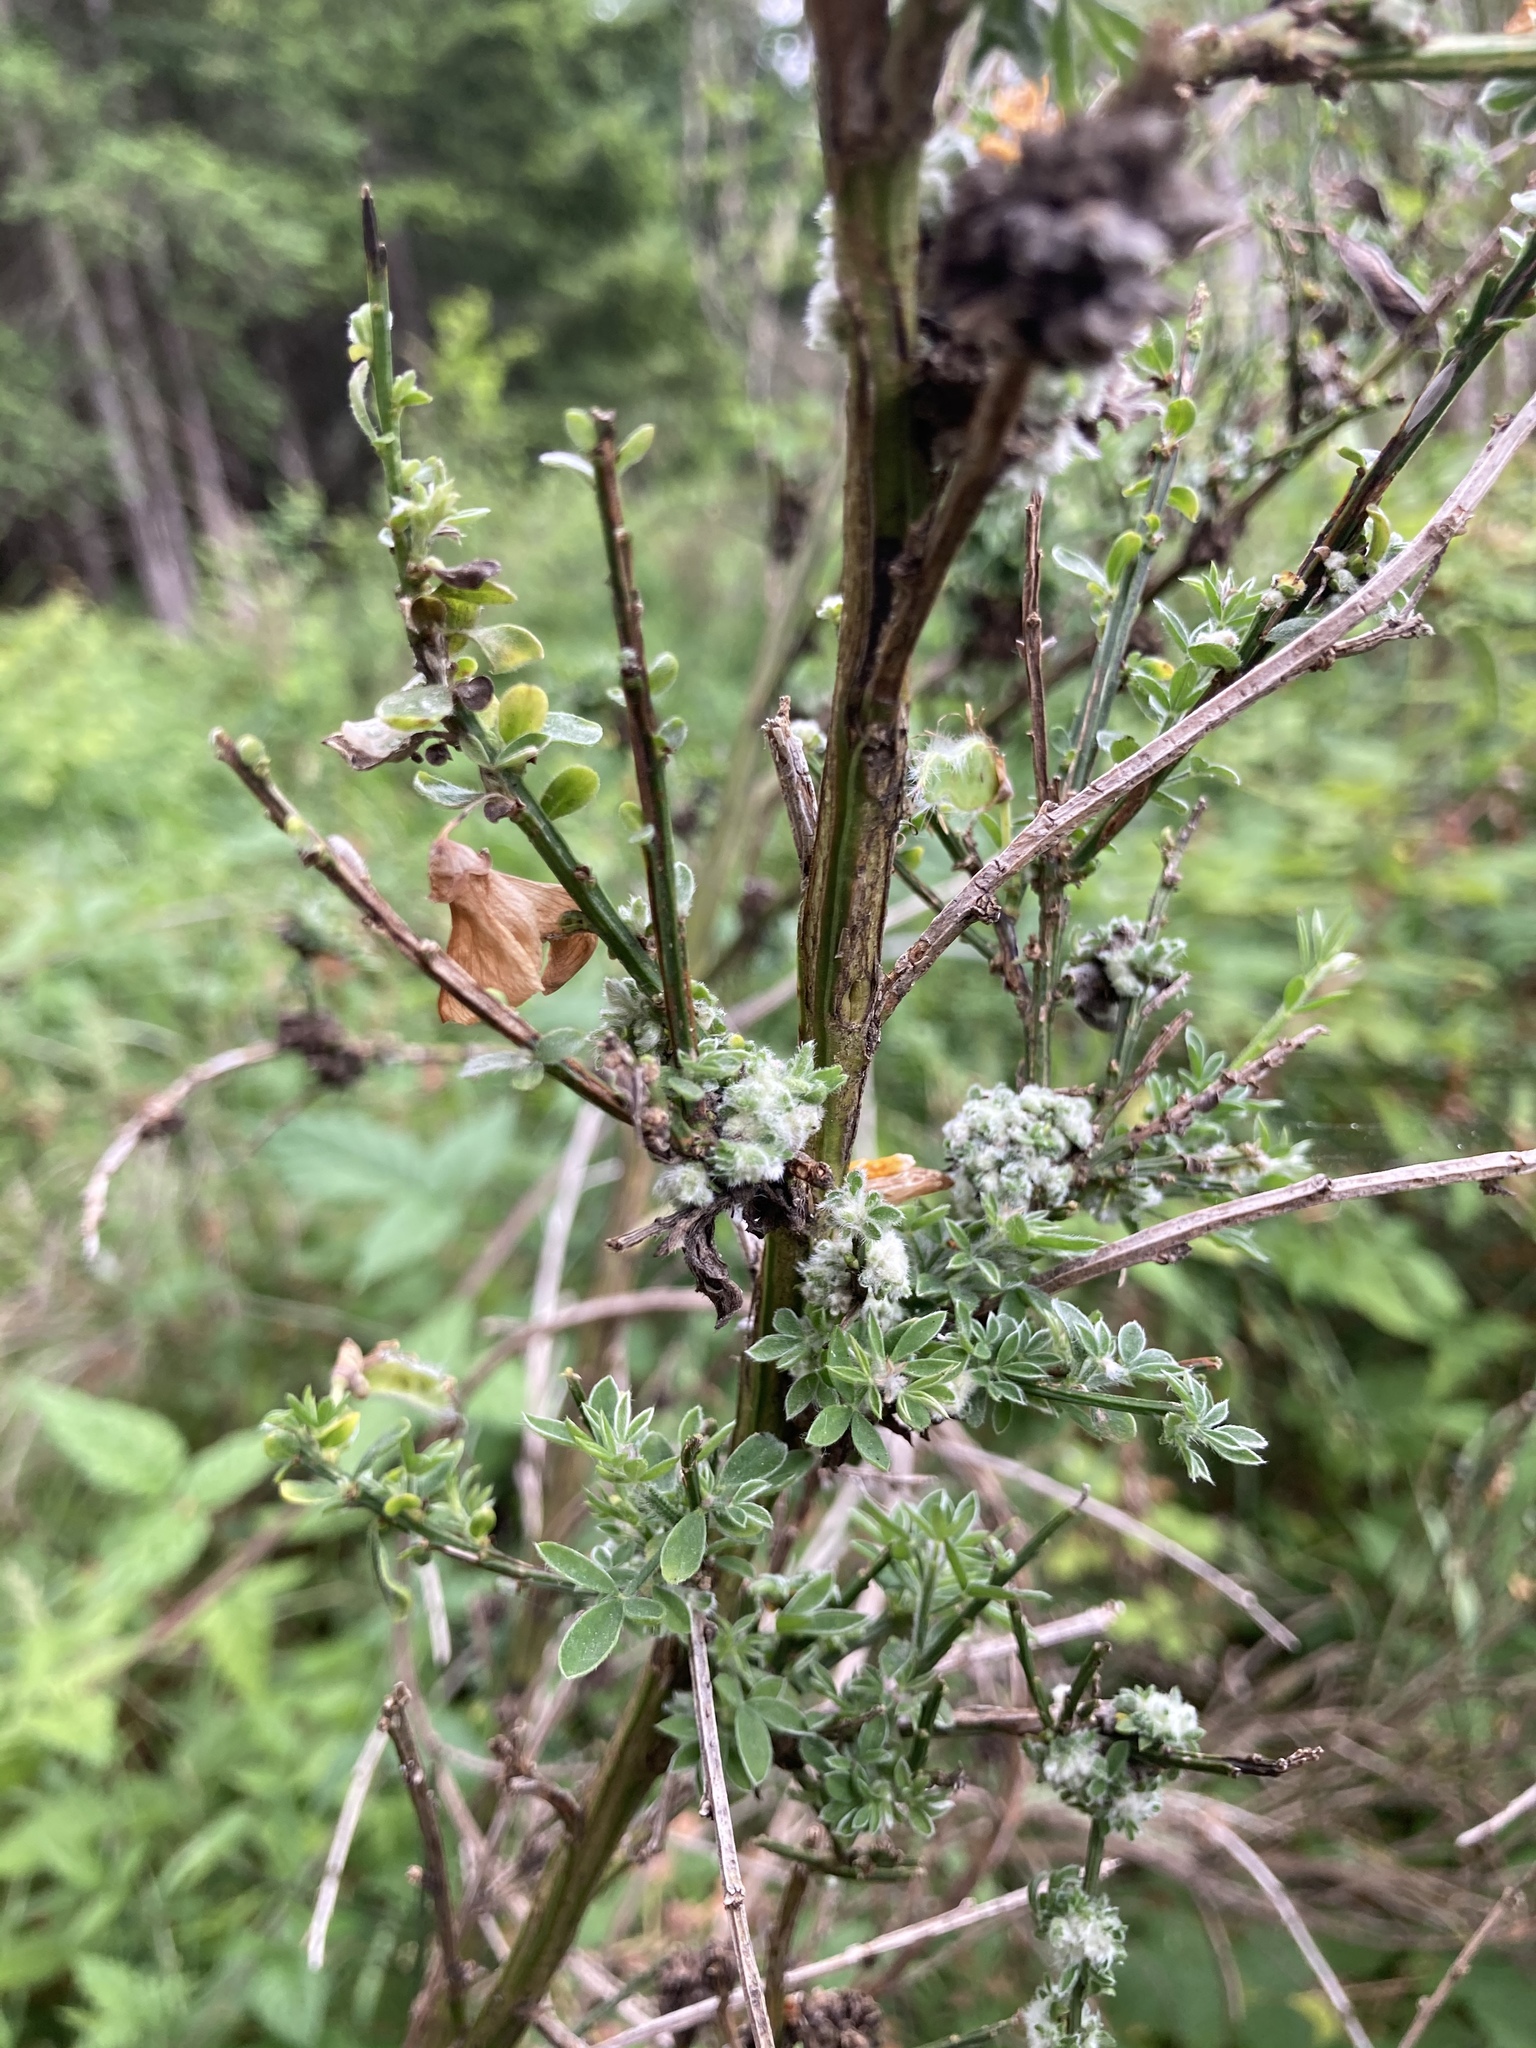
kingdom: Animalia
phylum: Arthropoda
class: Arachnida
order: Trombidiformes
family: Eriophyidae
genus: Aceria
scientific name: Aceria genistae
